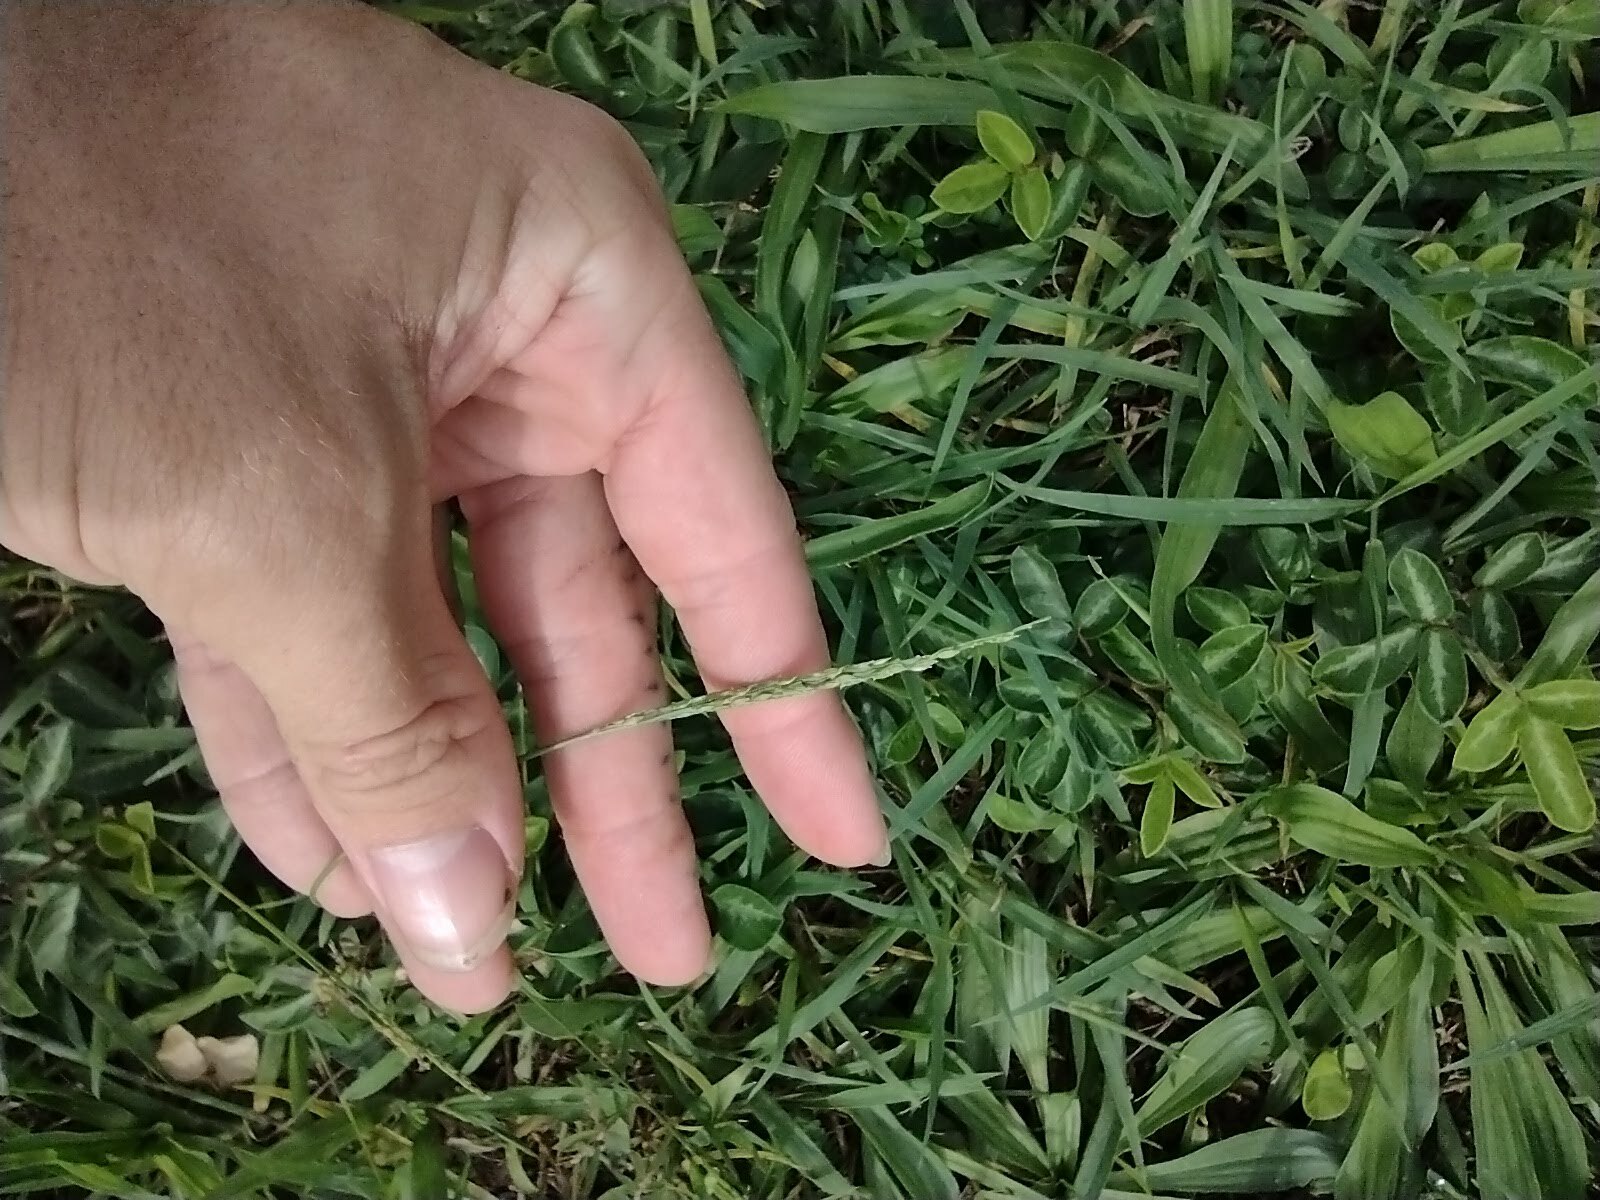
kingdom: Plantae
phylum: Tracheophyta
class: Liliopsida
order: Poales
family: Poaceae
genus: Digitaria
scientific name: Digitaria ciliaris
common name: Tropical finger-grass
